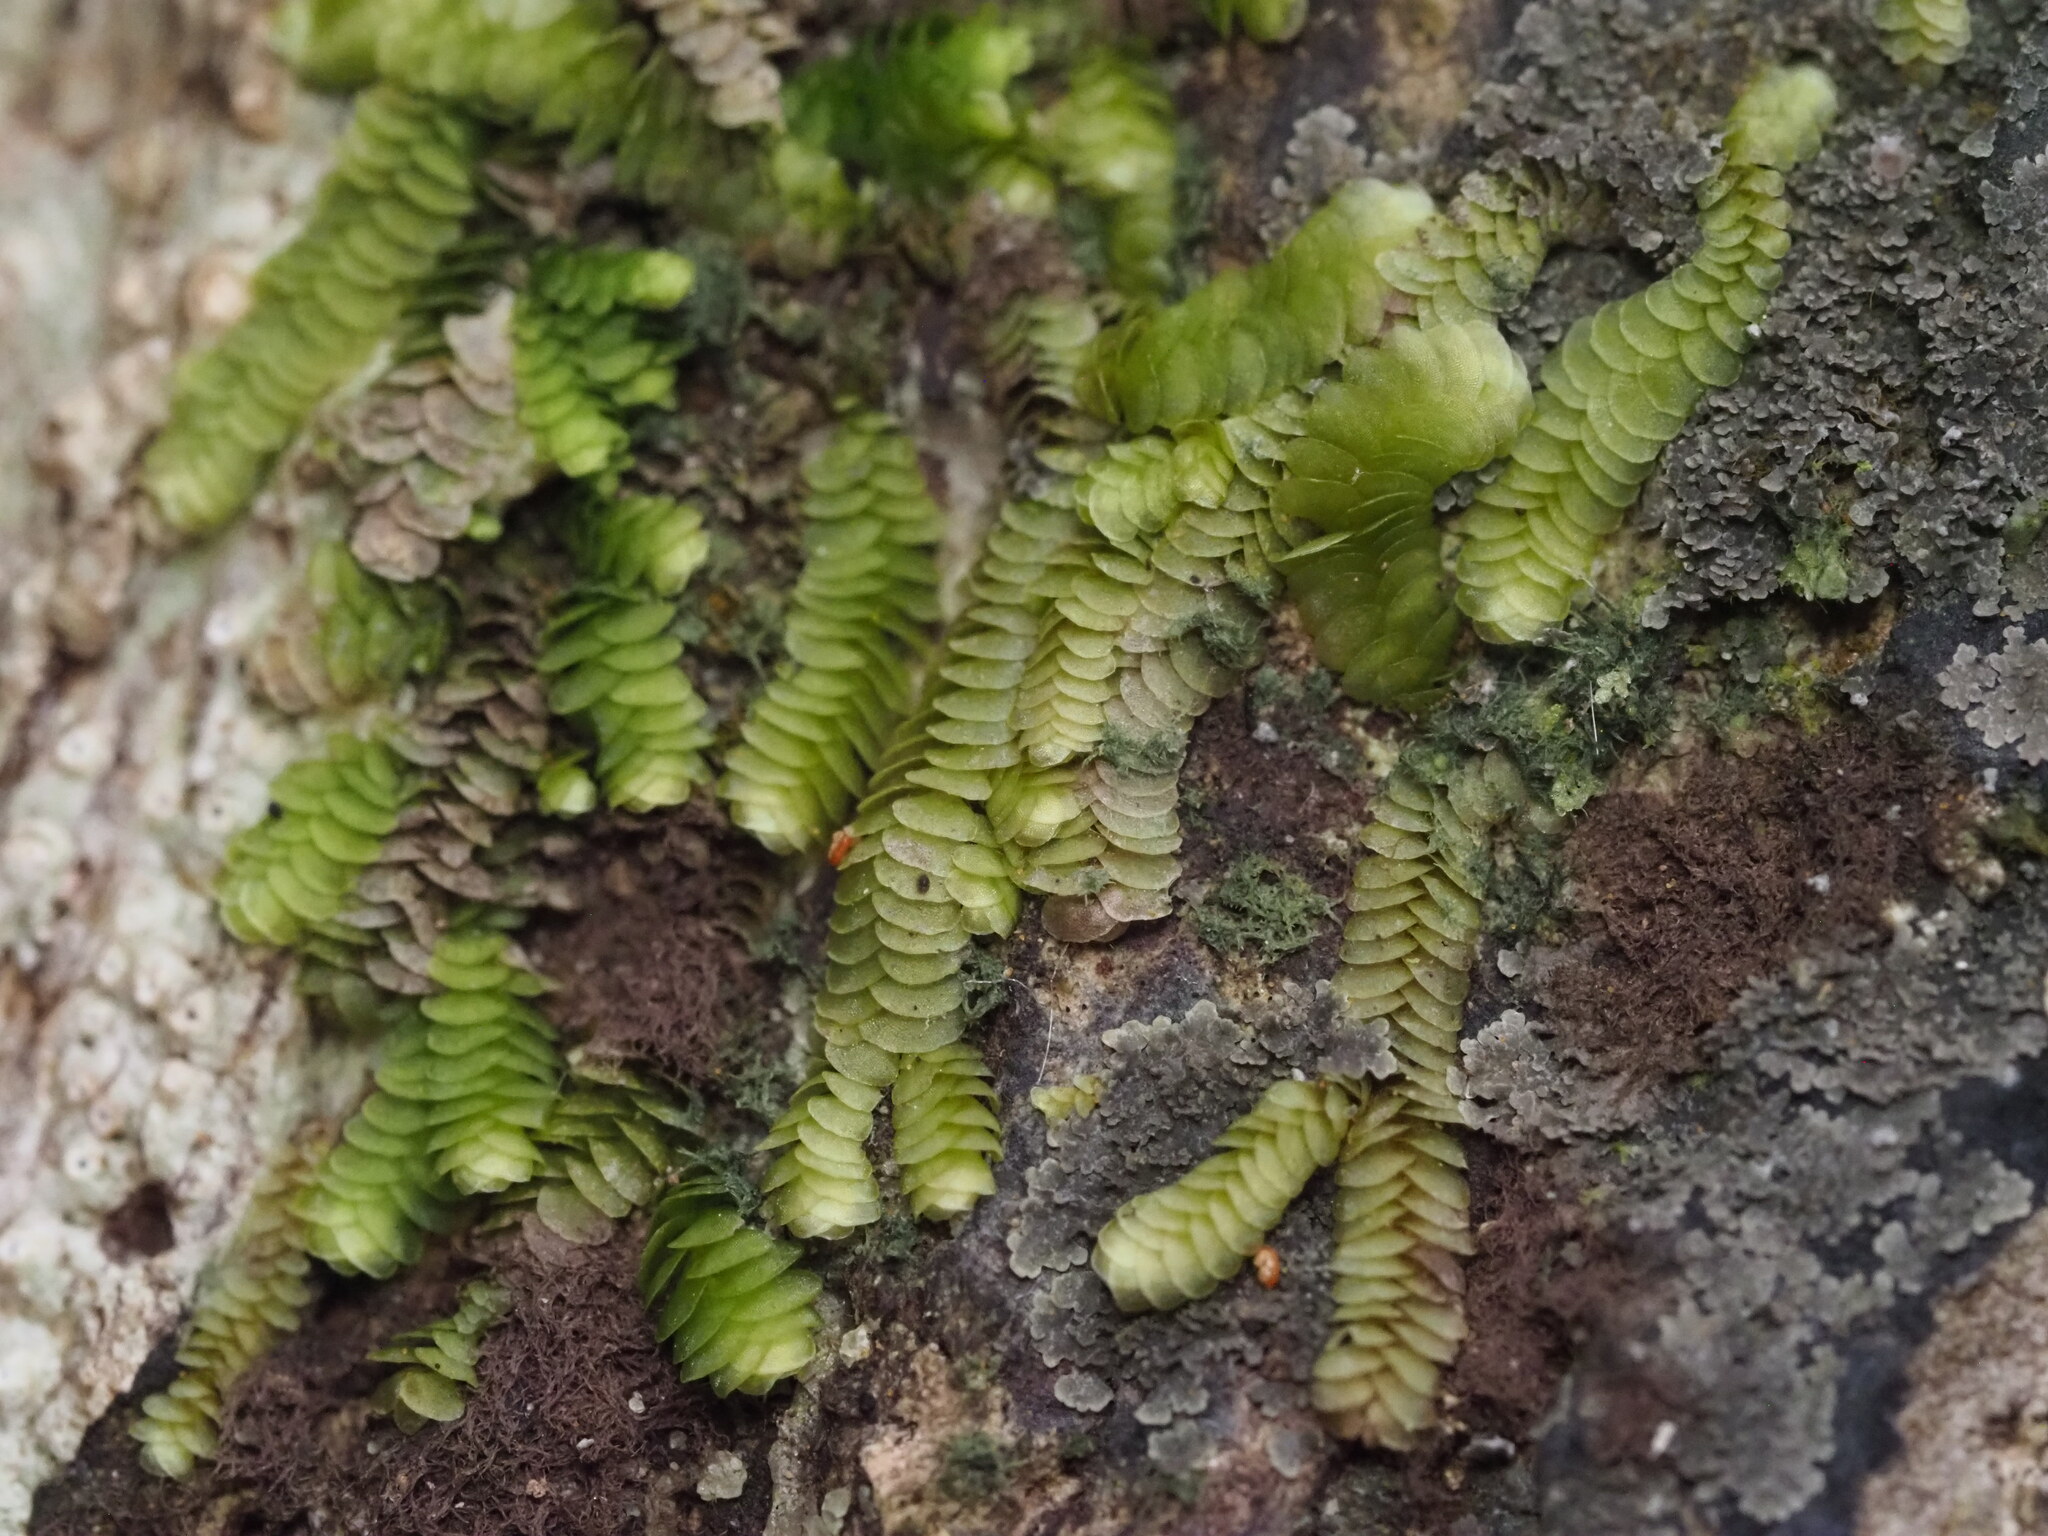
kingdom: Plantae
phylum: Marchantiophyta
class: Jungermanniopsida
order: Porellales
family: Lejeuneaceae
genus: Acrolejeunea
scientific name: Acrolejeunea sandvicensis
